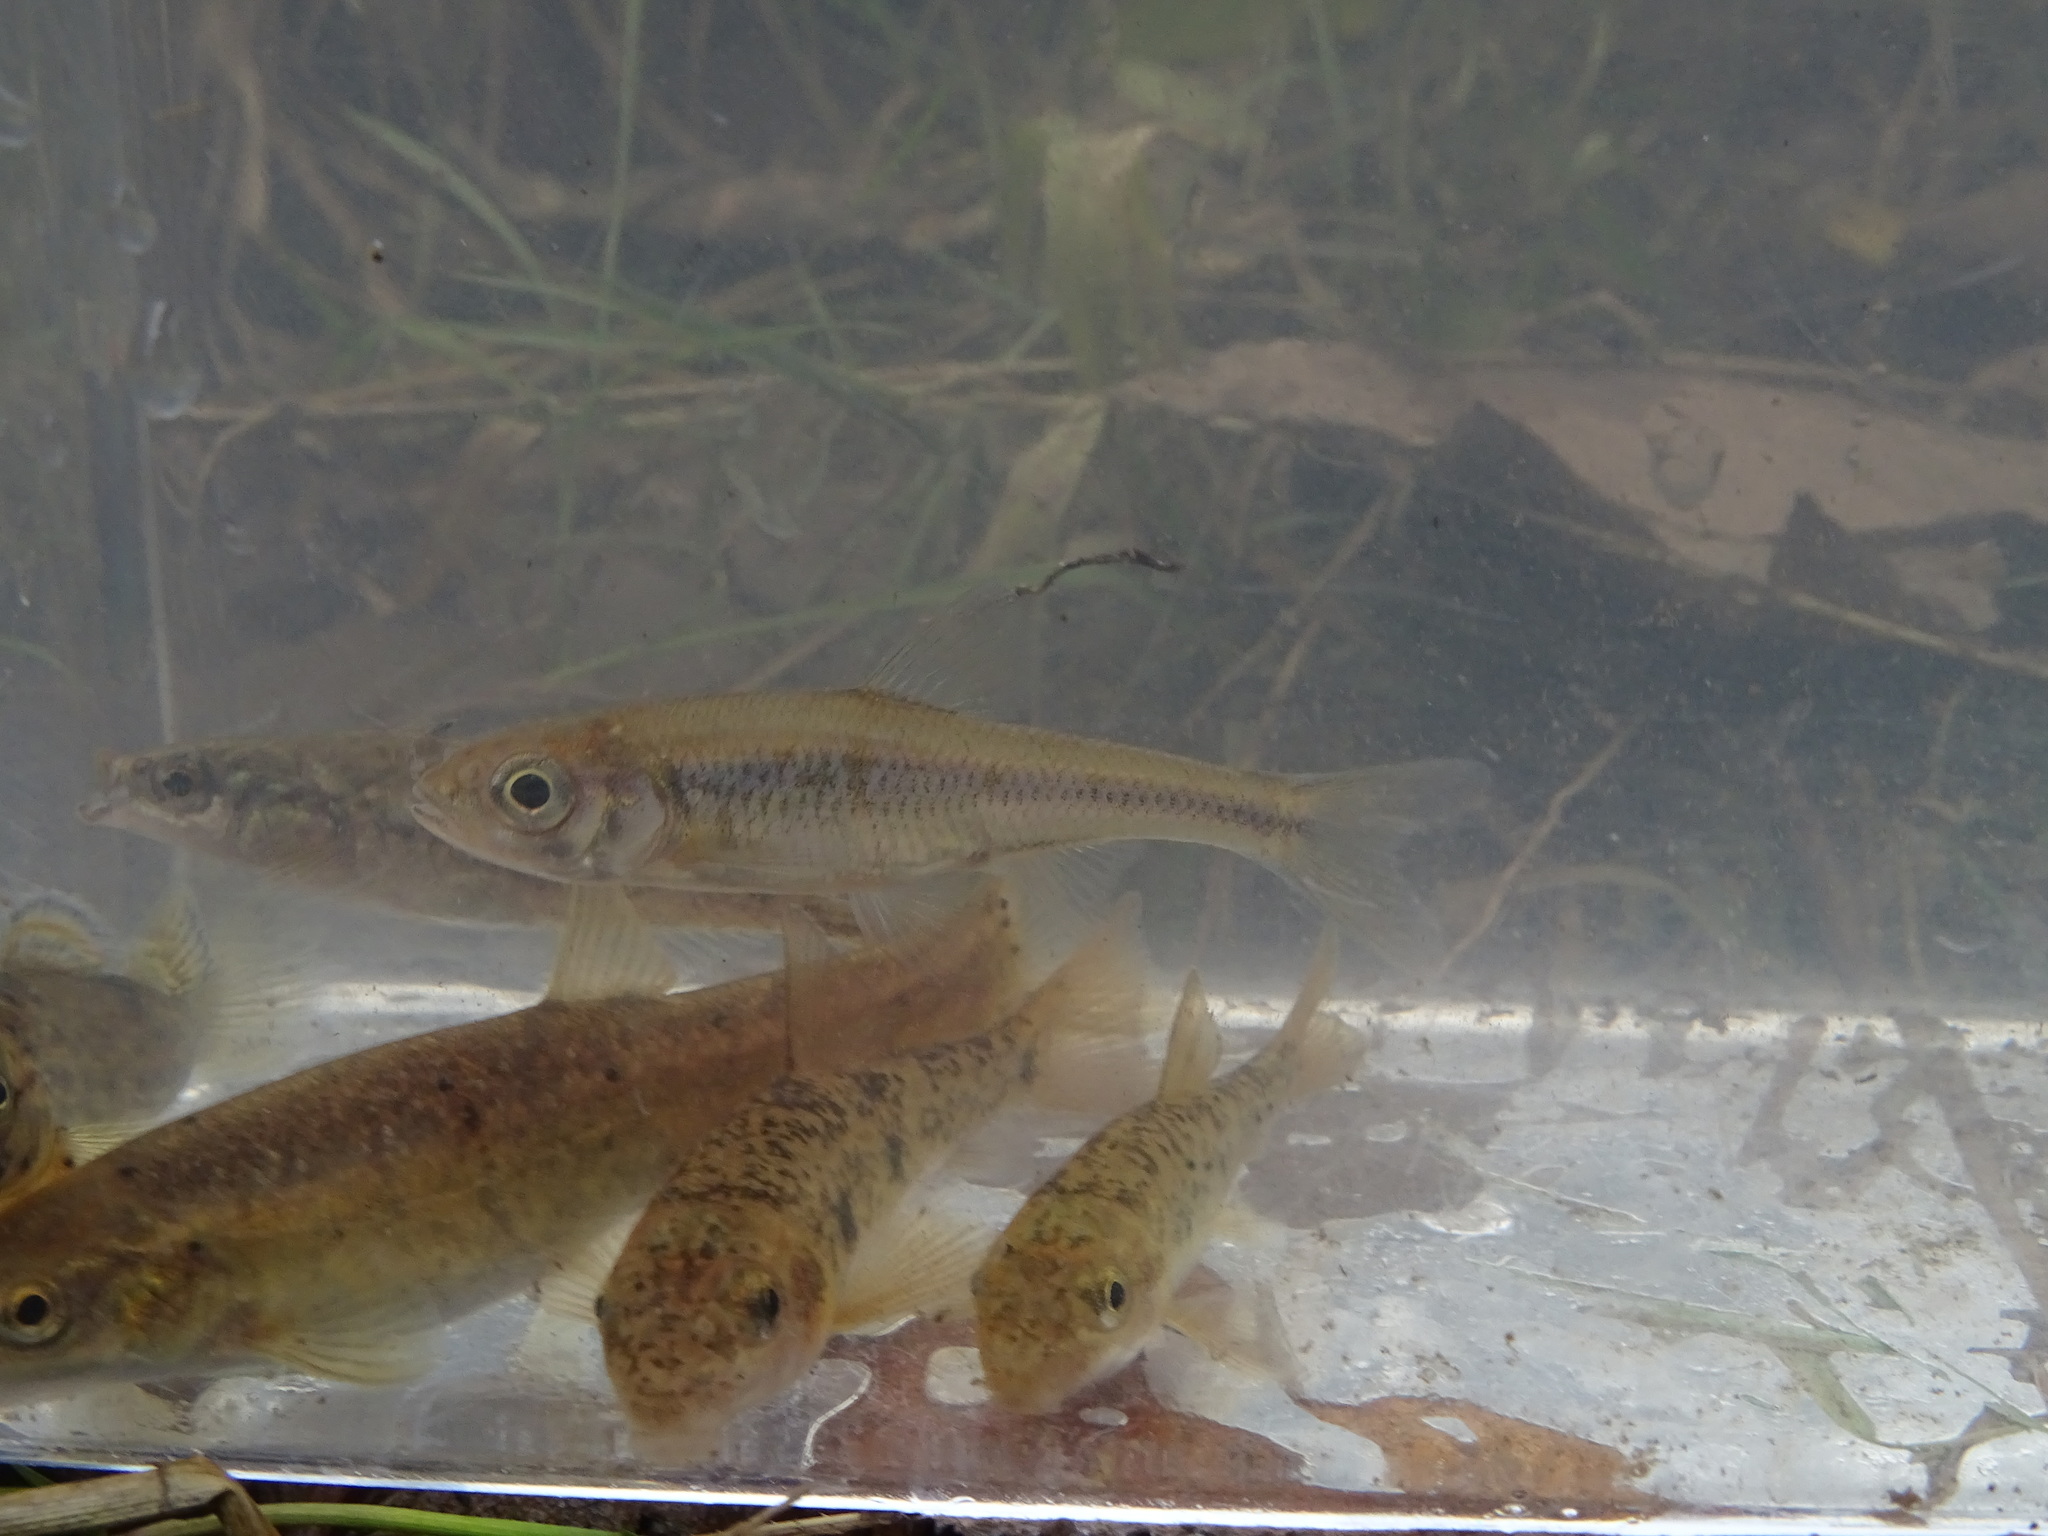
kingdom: Animalia
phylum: Chordata
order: Cypriniformes
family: Cyprinidae
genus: Luxilus
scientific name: Luxilus cornutus
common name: Common shiner
